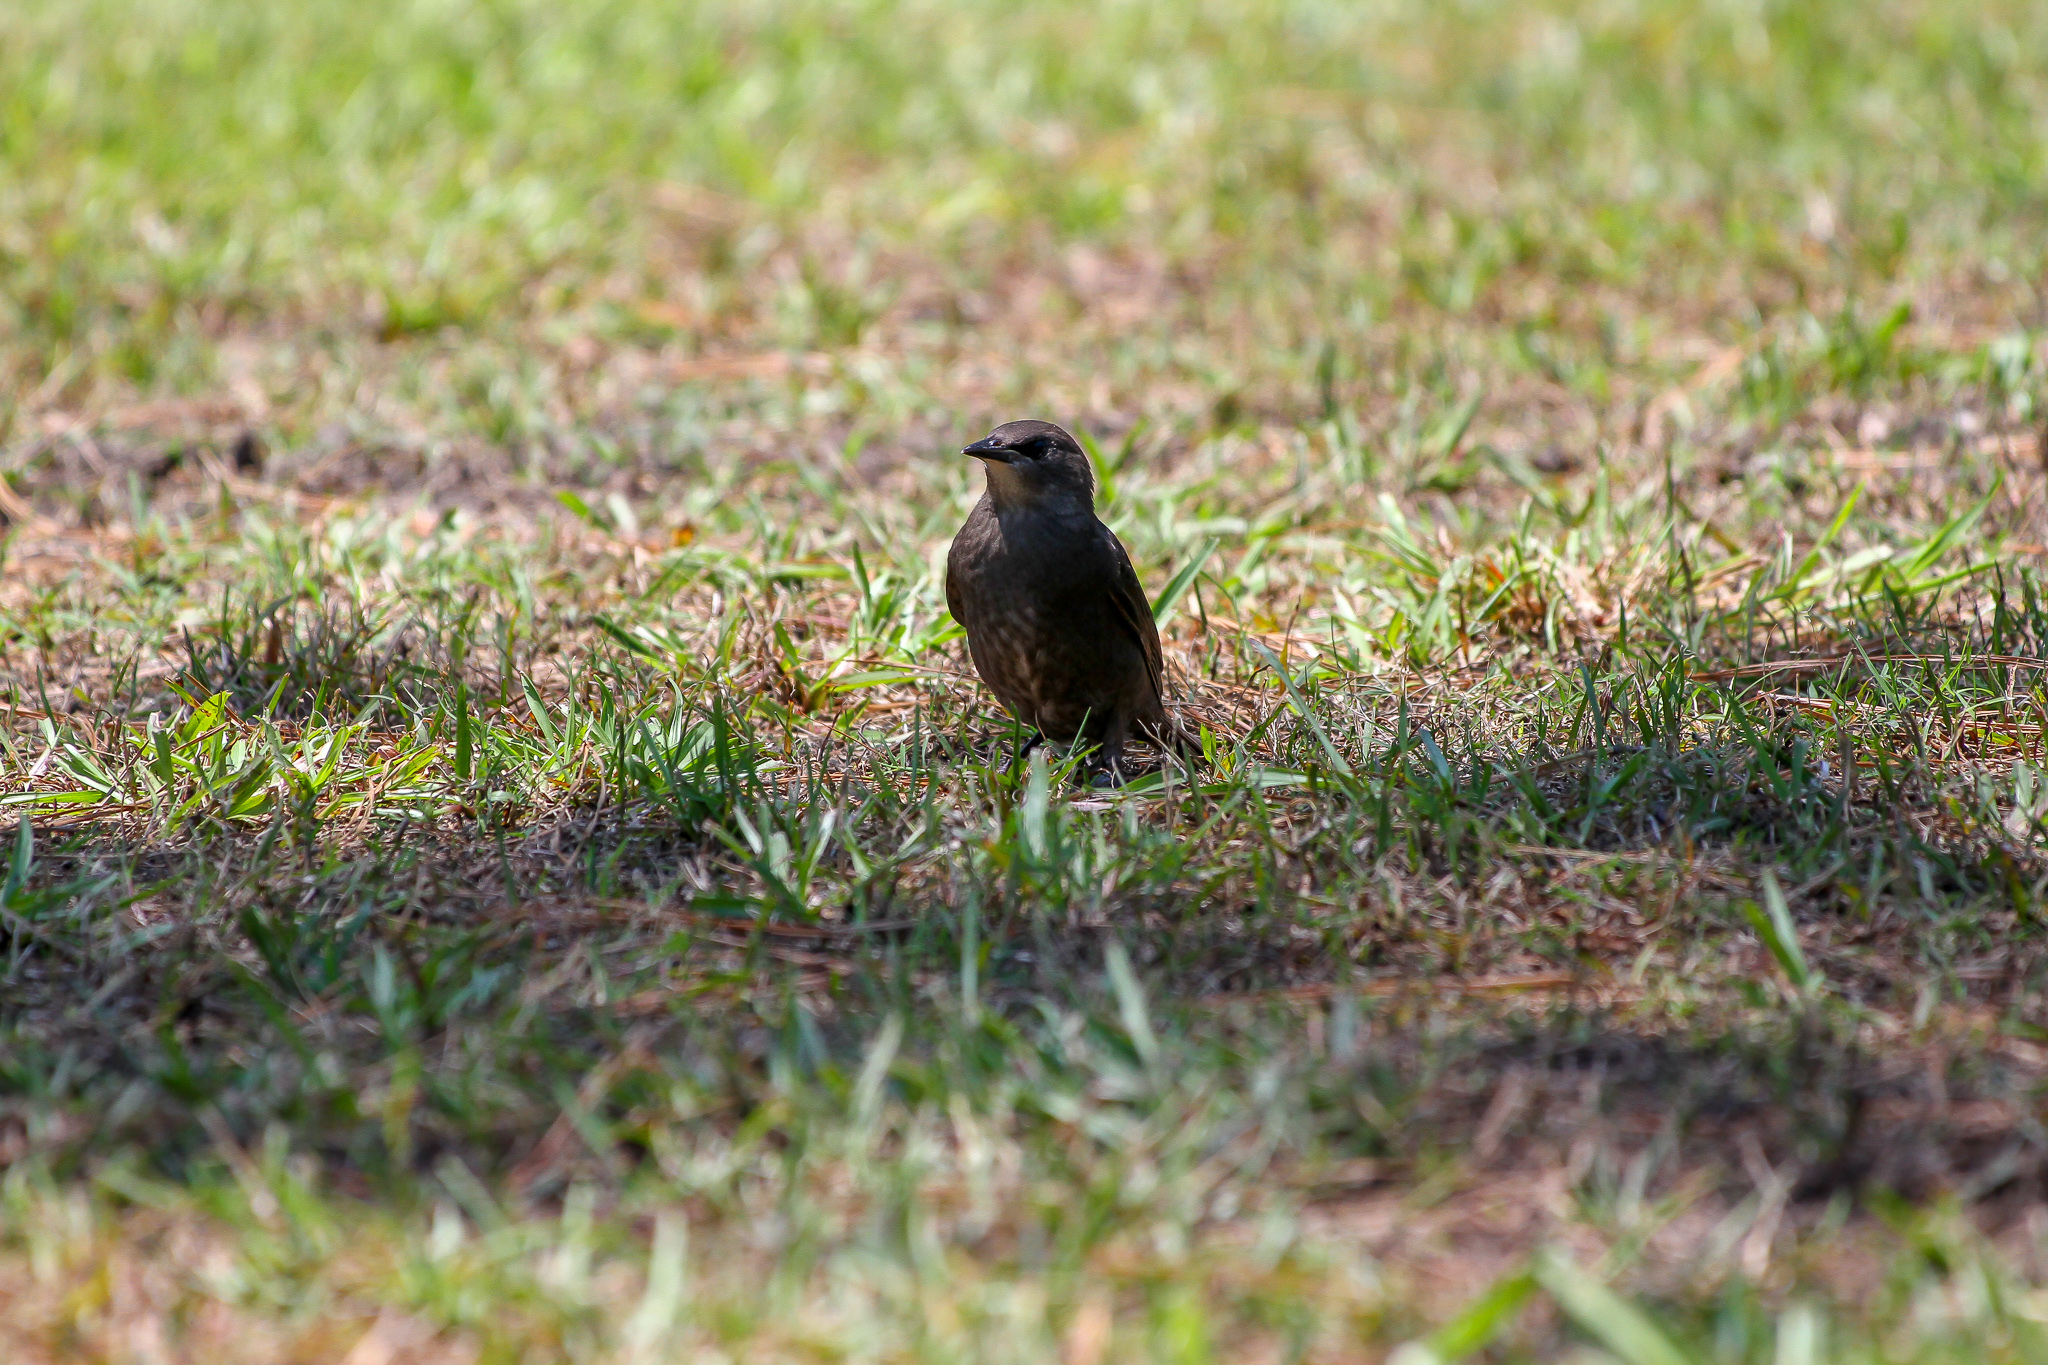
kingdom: Animalia
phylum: Chordata
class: Aves
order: Passeriformes
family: Sturnidae
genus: Sturnus
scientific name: Sturnus vulgaris
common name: Common starling
